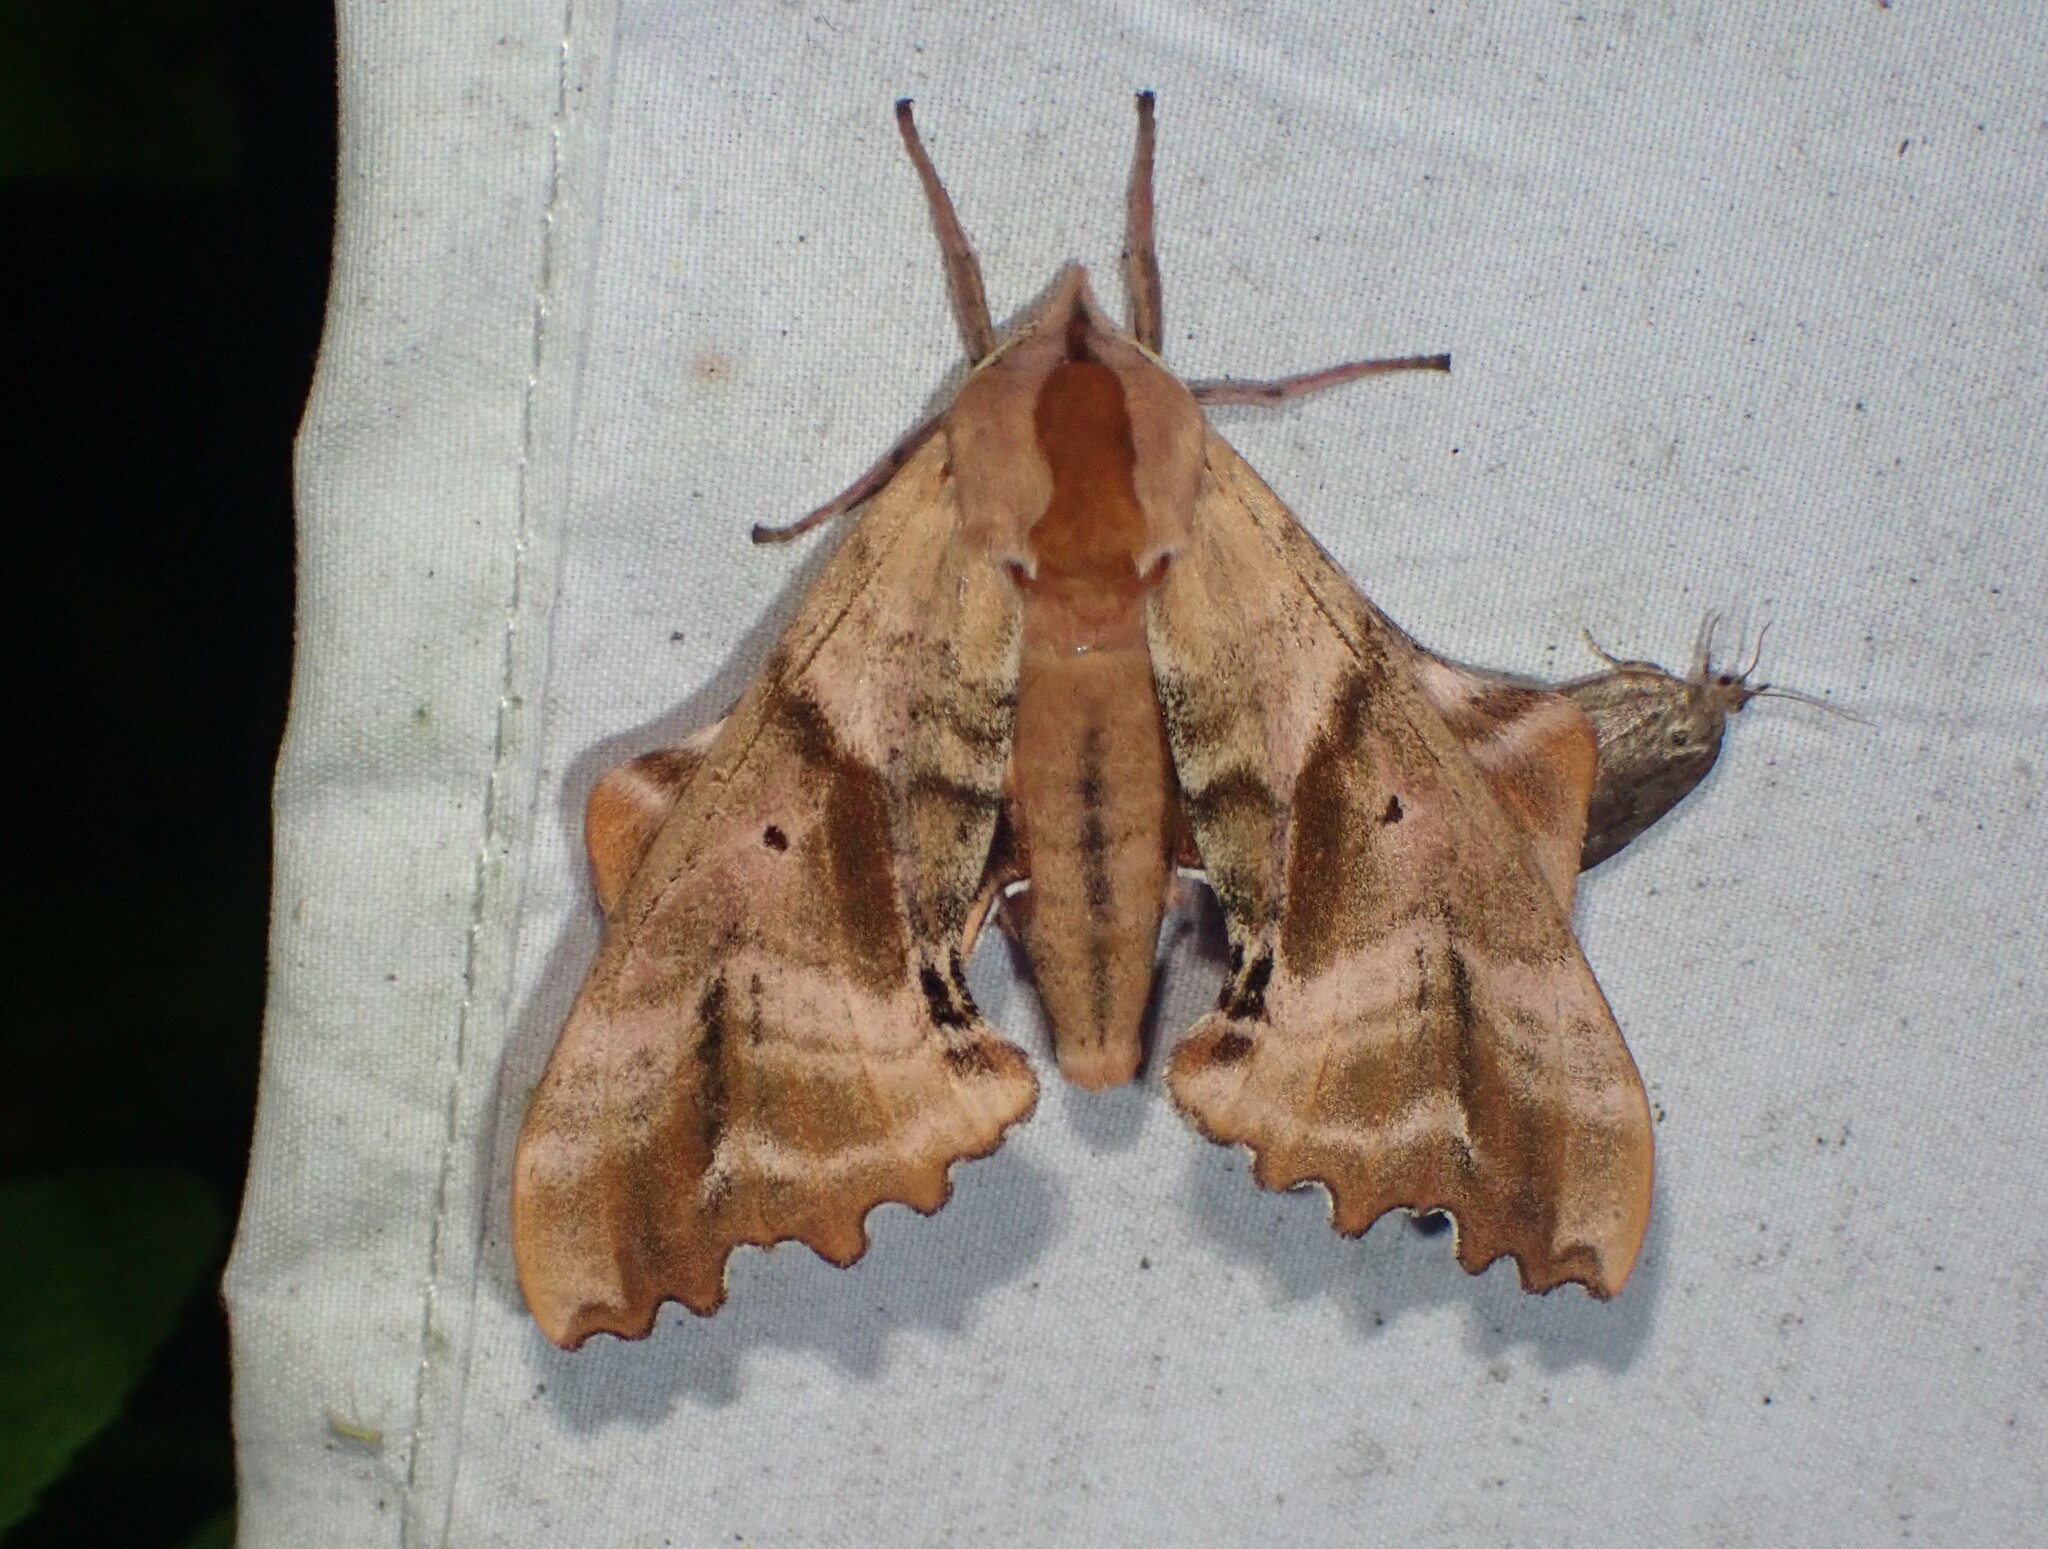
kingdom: Animalia
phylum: Arthropoda
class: Insecta
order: Lepidoptera
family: Sphingidae
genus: Paonias
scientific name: Paonias excaecata
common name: Blind-eyed sphinx
